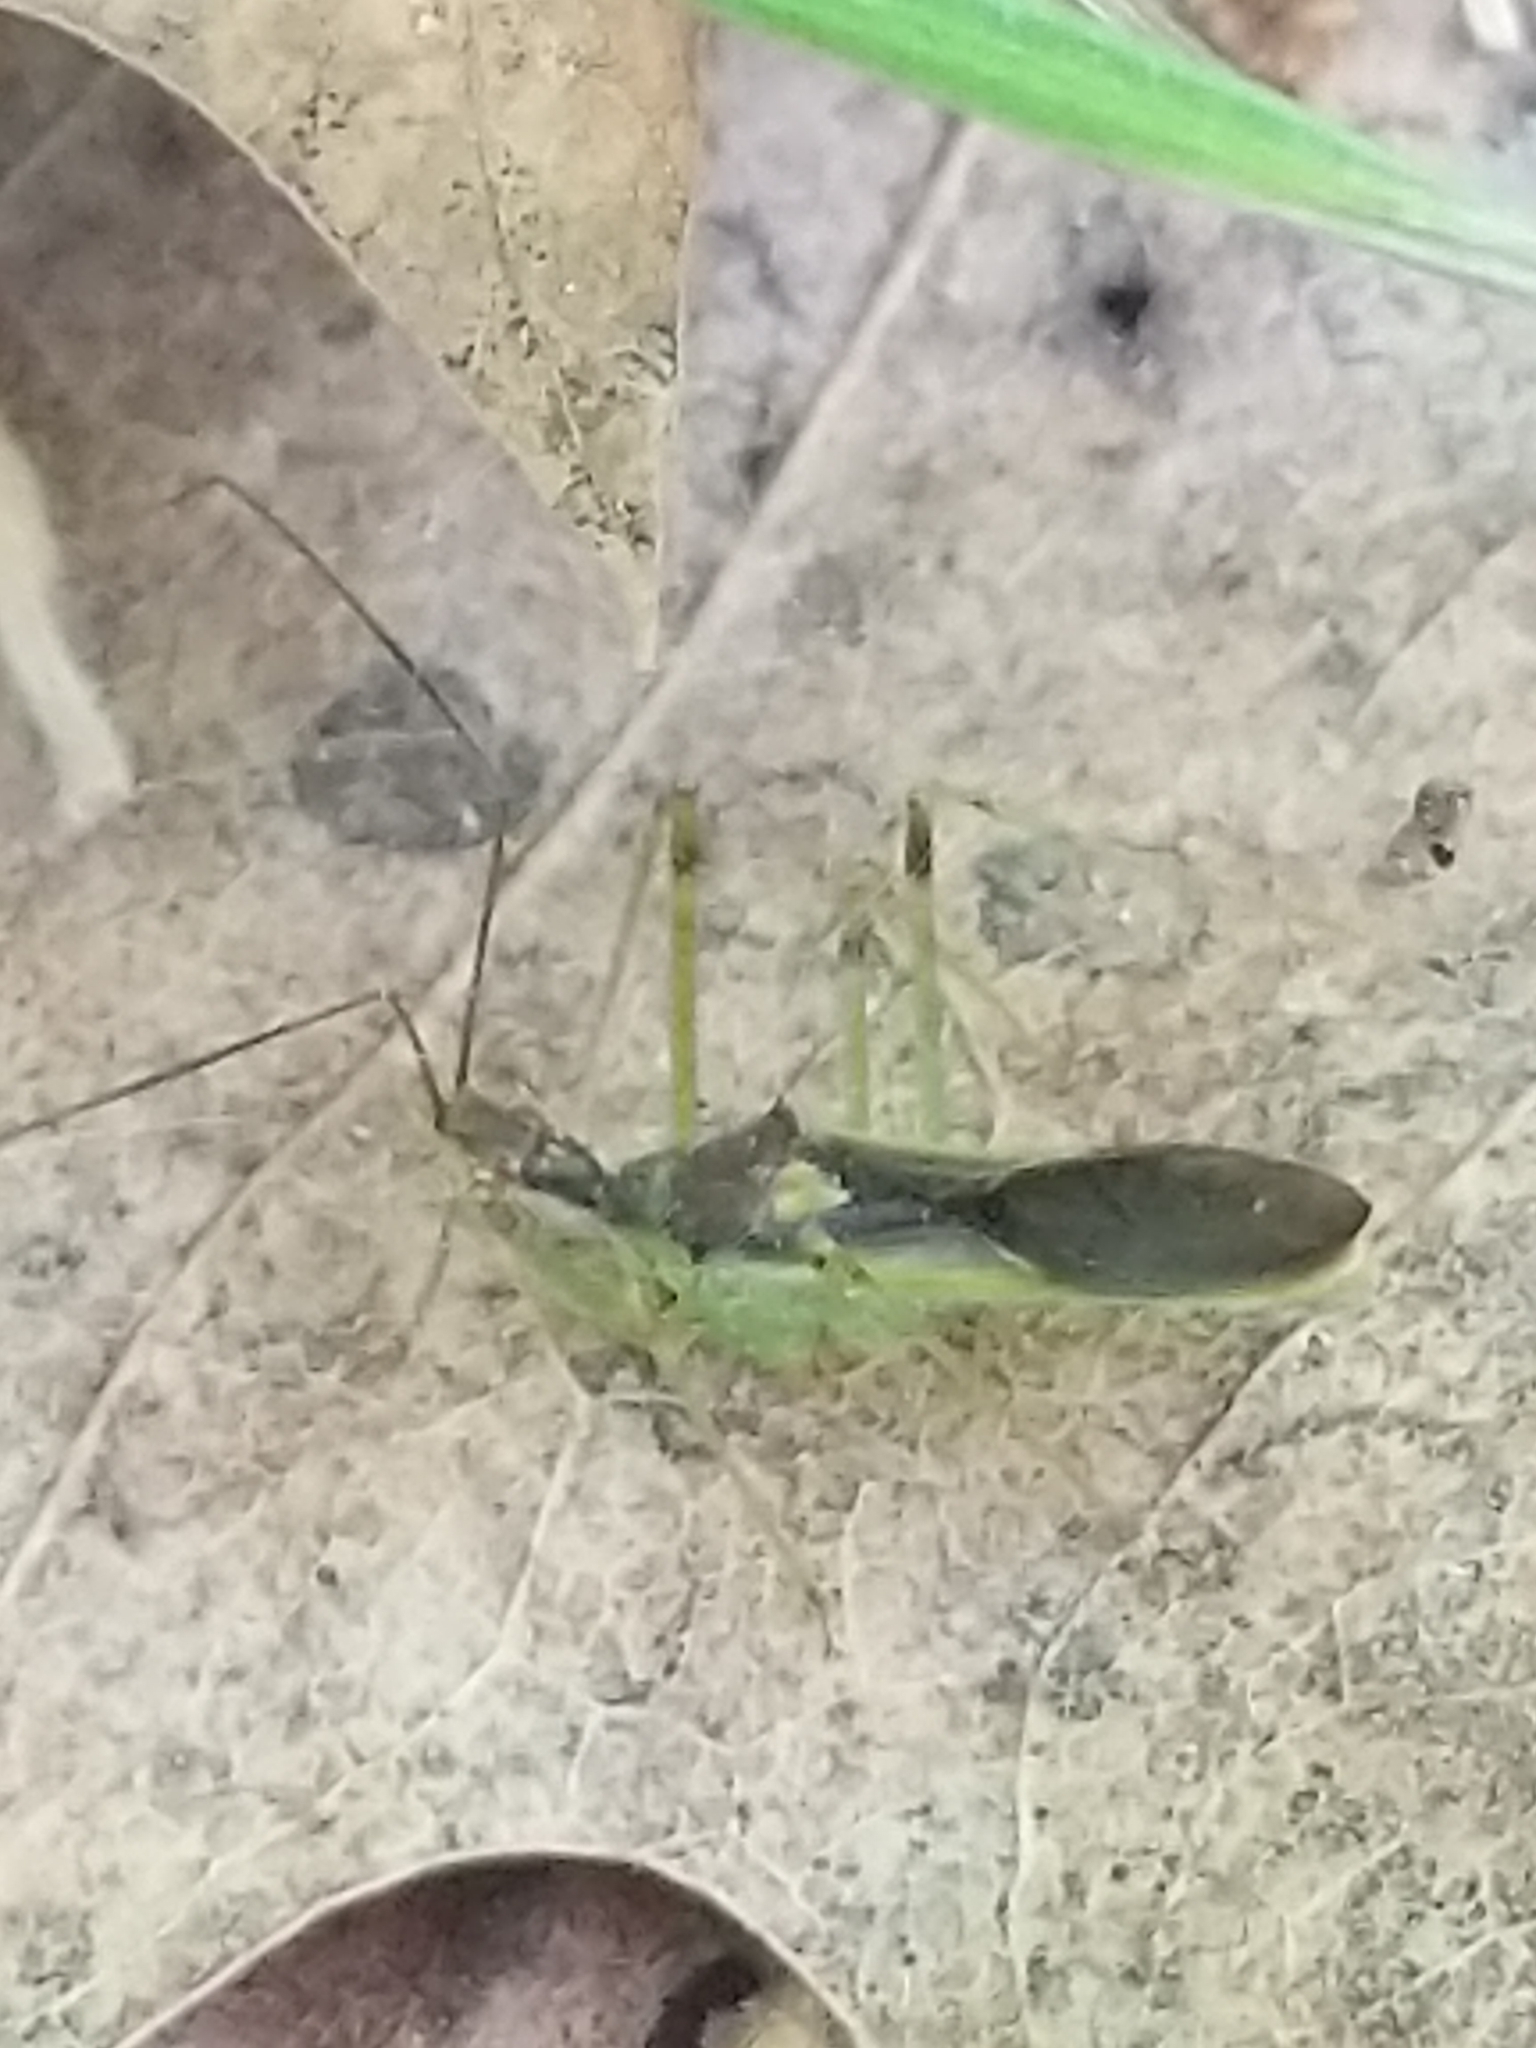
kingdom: Animalia
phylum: Arthropoda
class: Insecta
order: Hemiptera
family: Reduviidae
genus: Zelus
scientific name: Zelus luridus
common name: Pale green assassin bug
